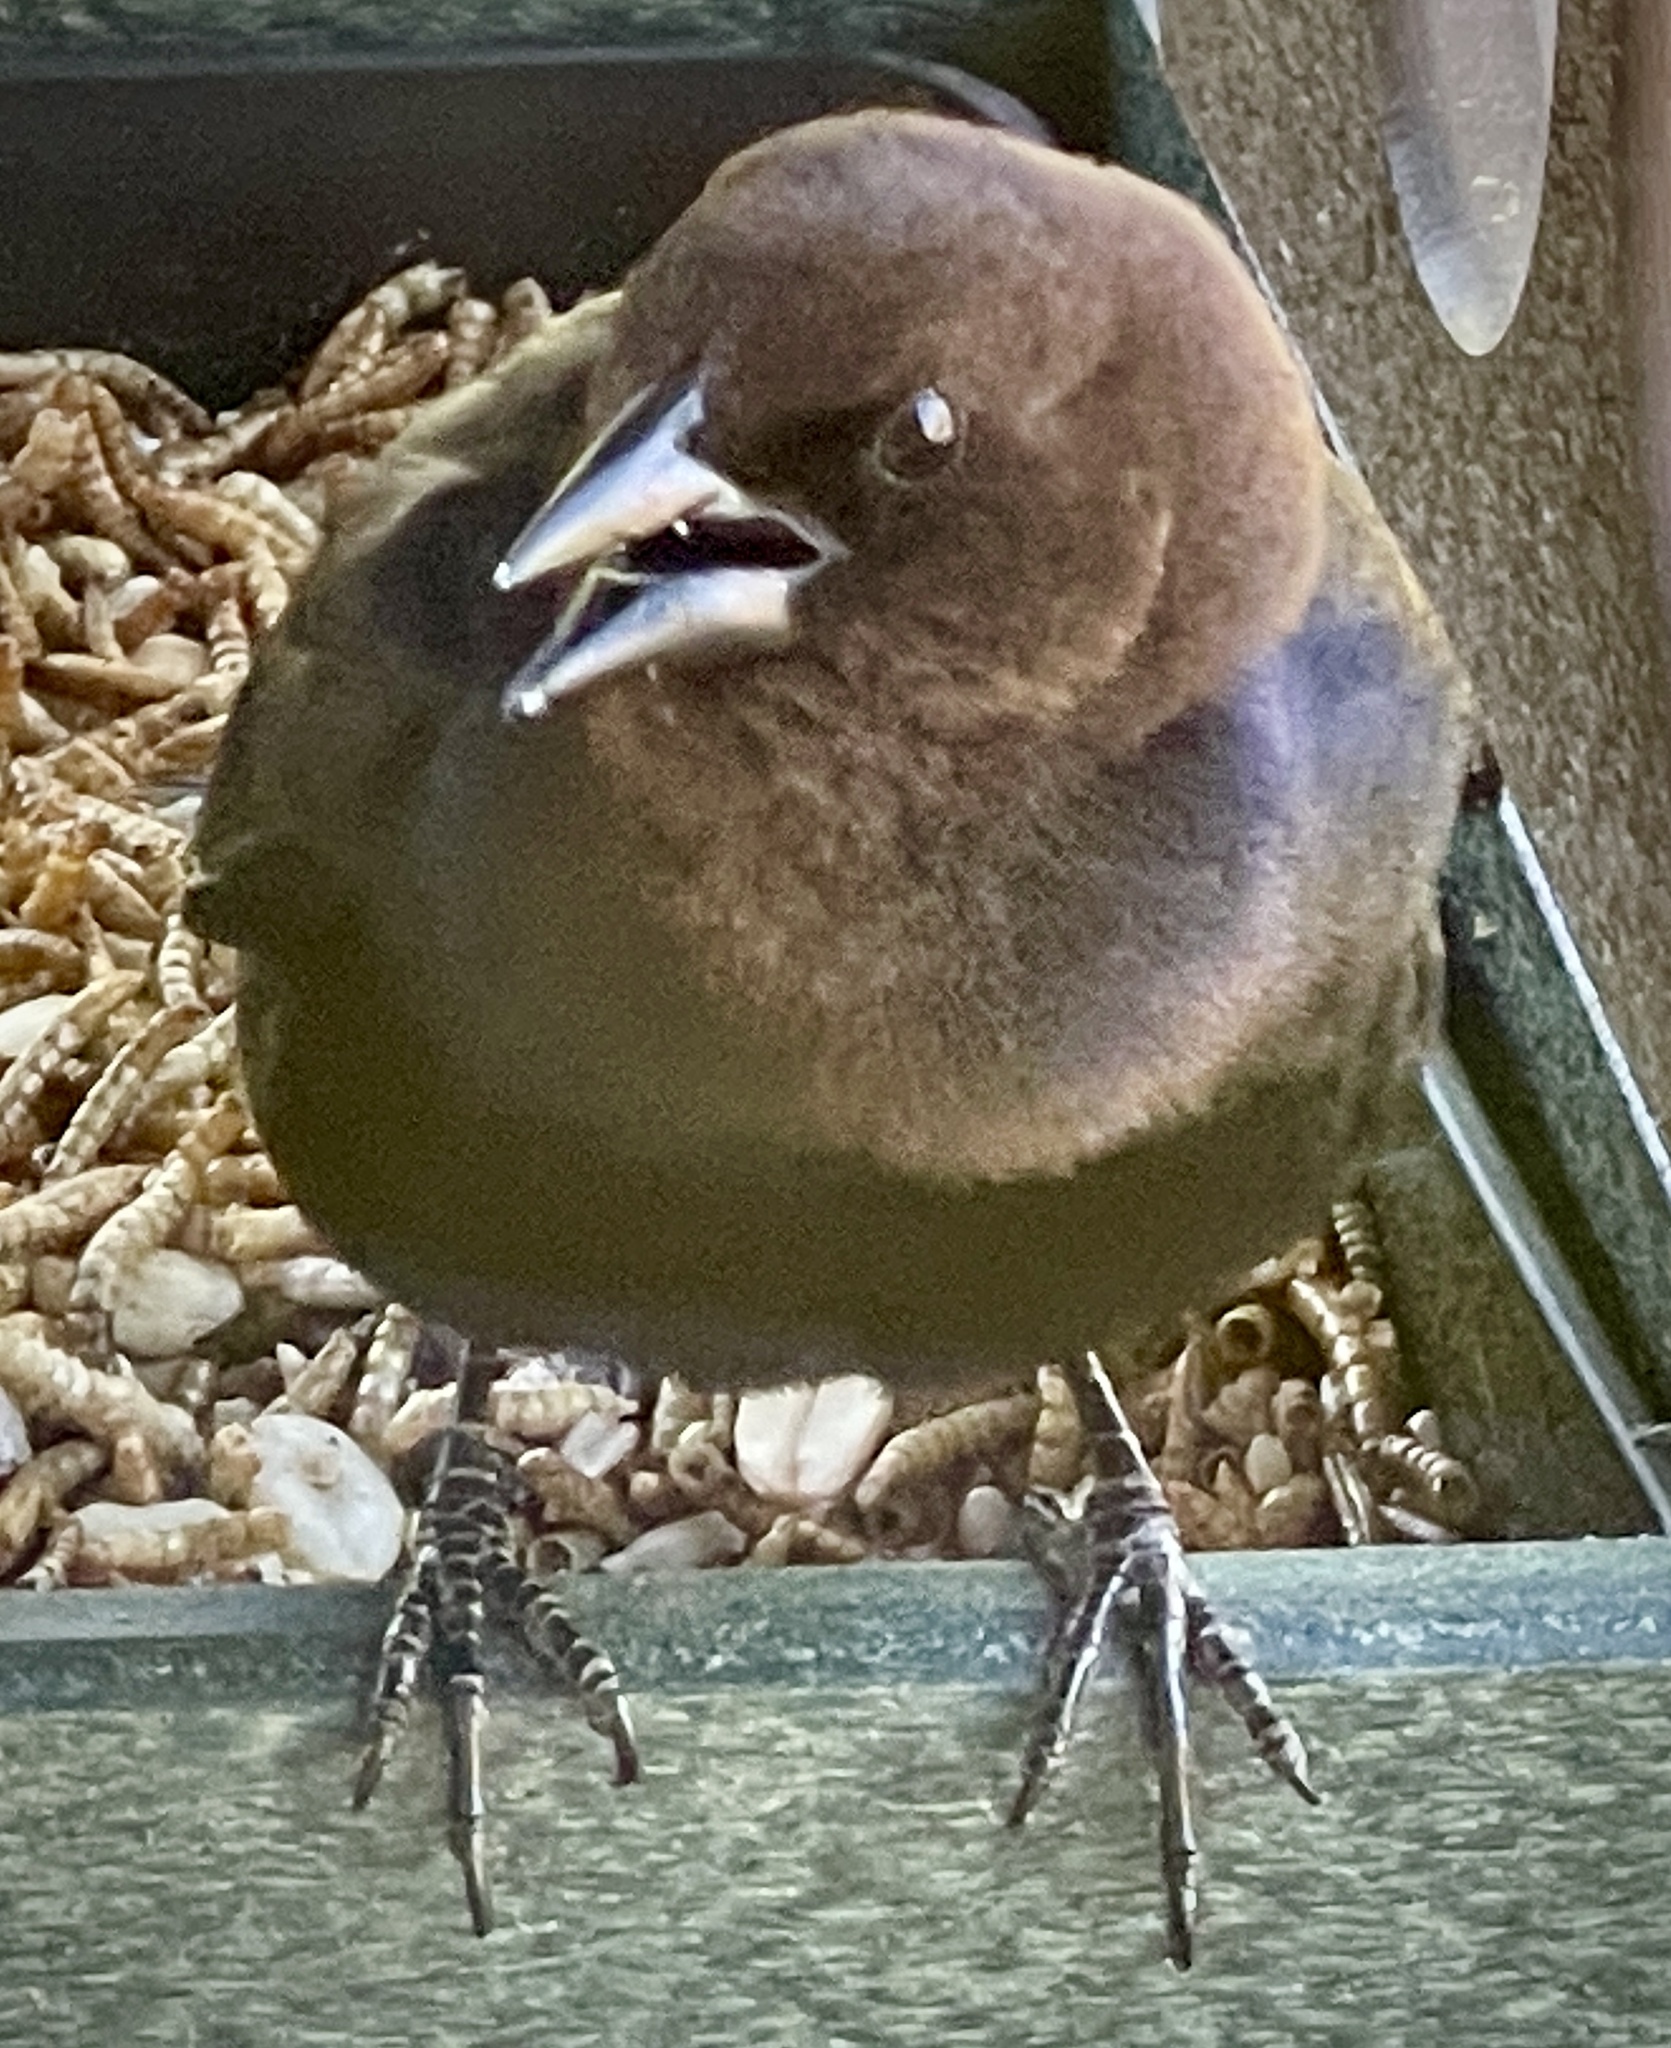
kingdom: Animalia
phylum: Chordata
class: Aves
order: Passeriformes
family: Icteridae
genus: Molothrus
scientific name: Molothrus ater
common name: Brown-headed cowbird
